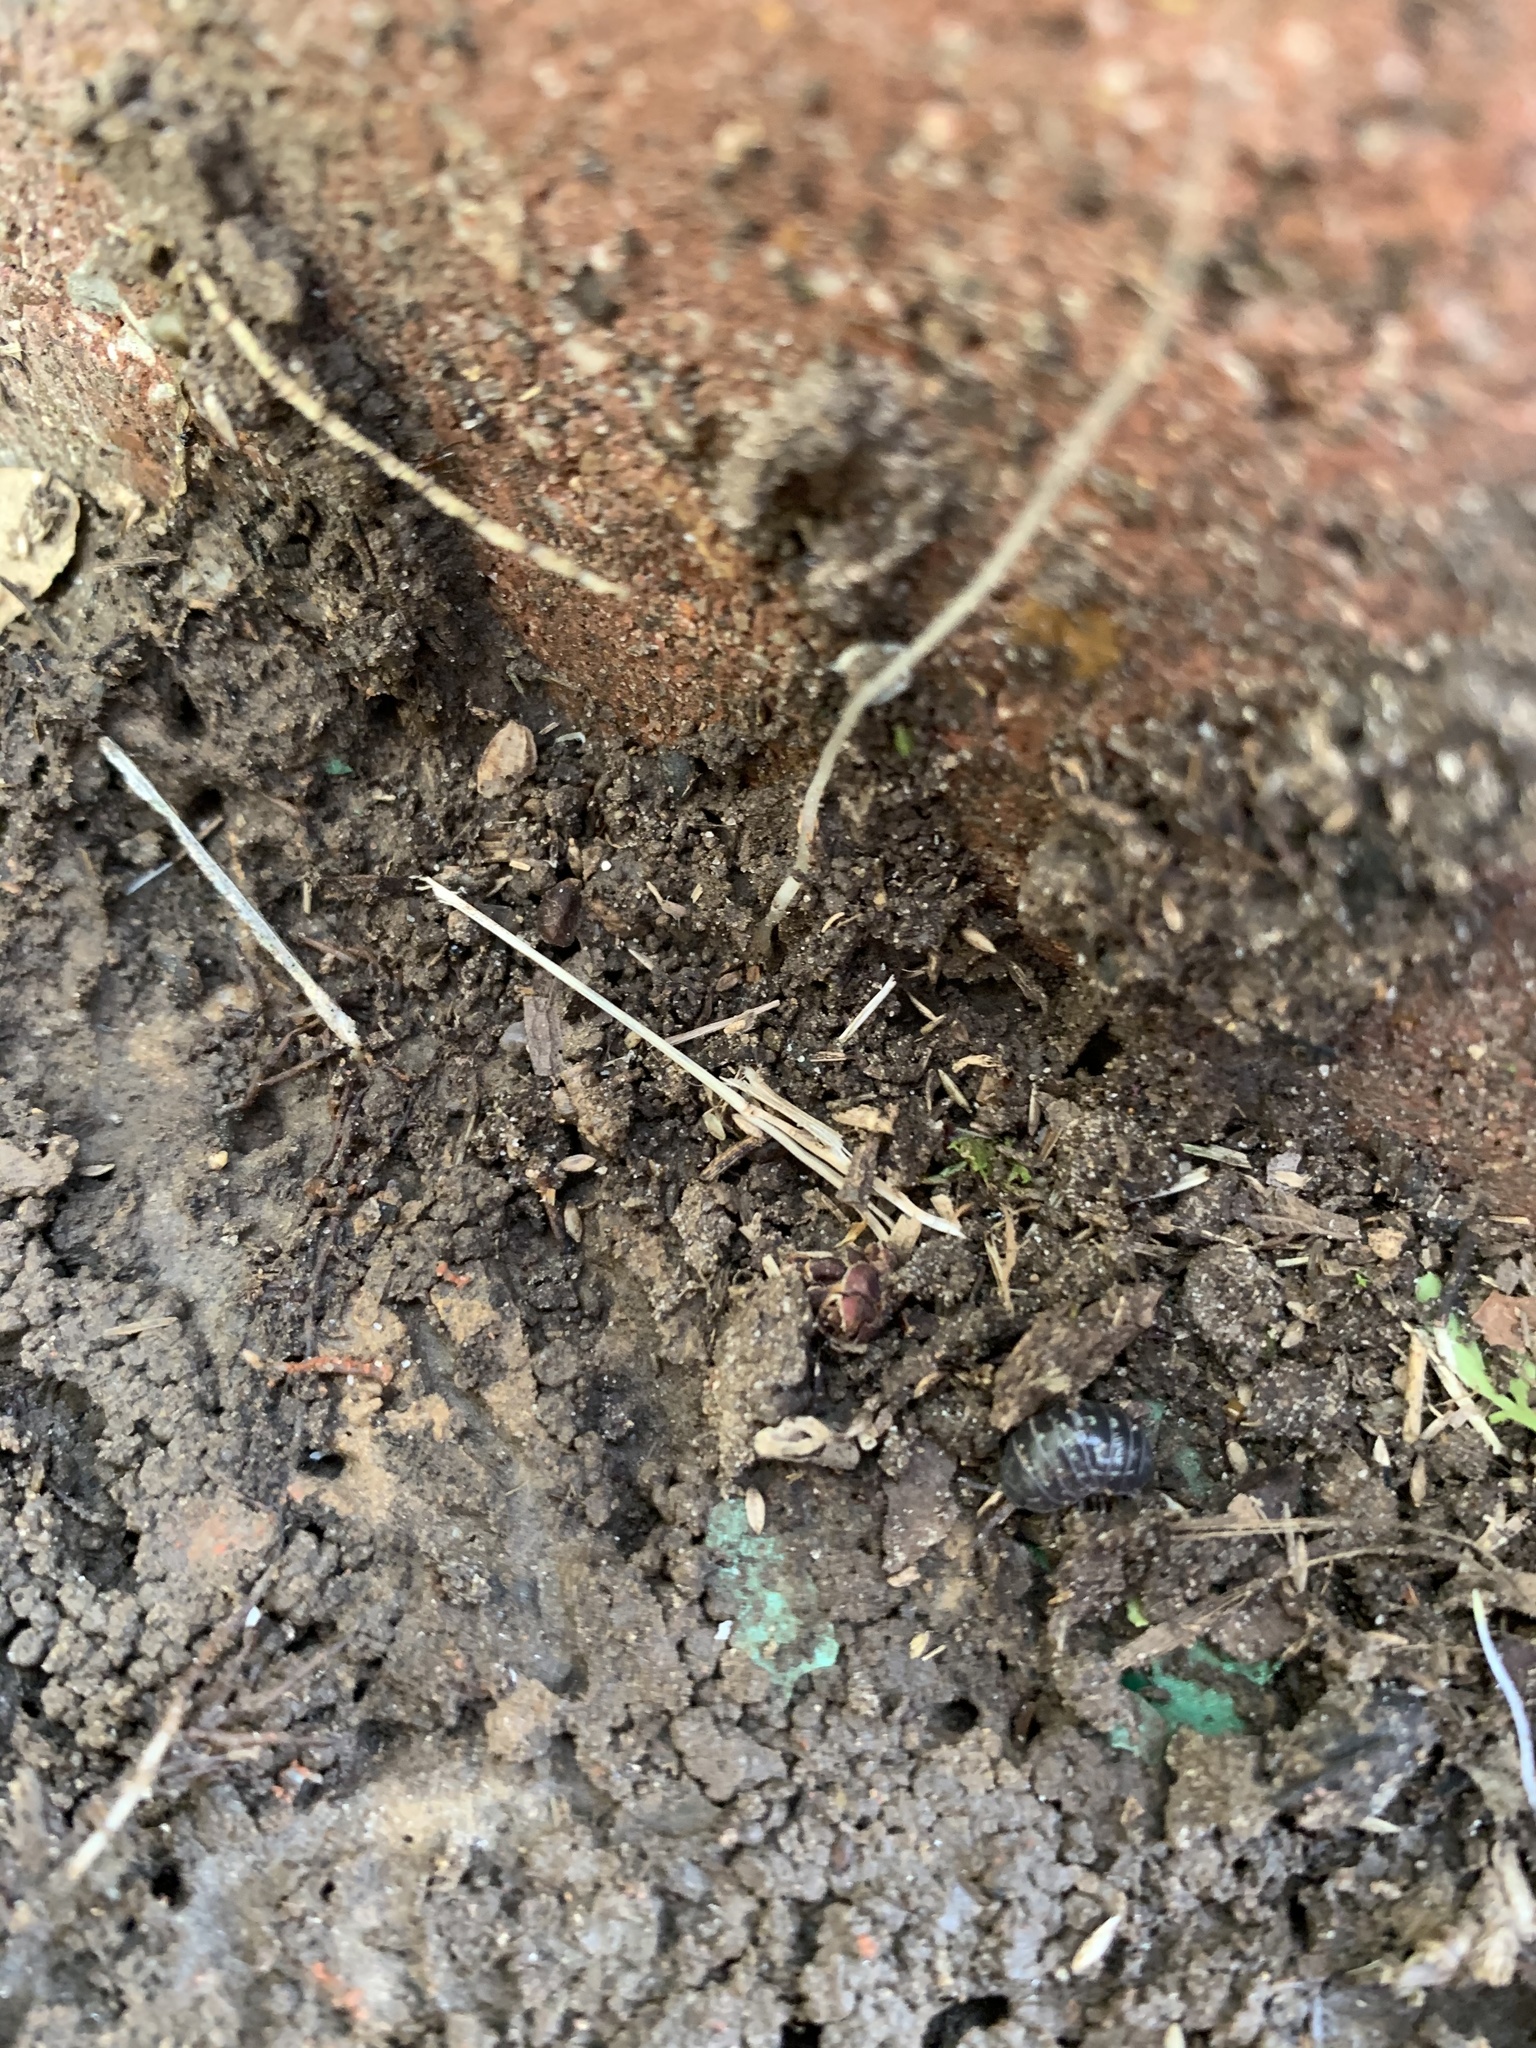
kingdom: Animalia
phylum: Arthropoda
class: Malacostraca
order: Isopoda
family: Armadillidiidae
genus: Armadillidium
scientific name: Armadillidium vulgare
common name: Common pill woodlouse
